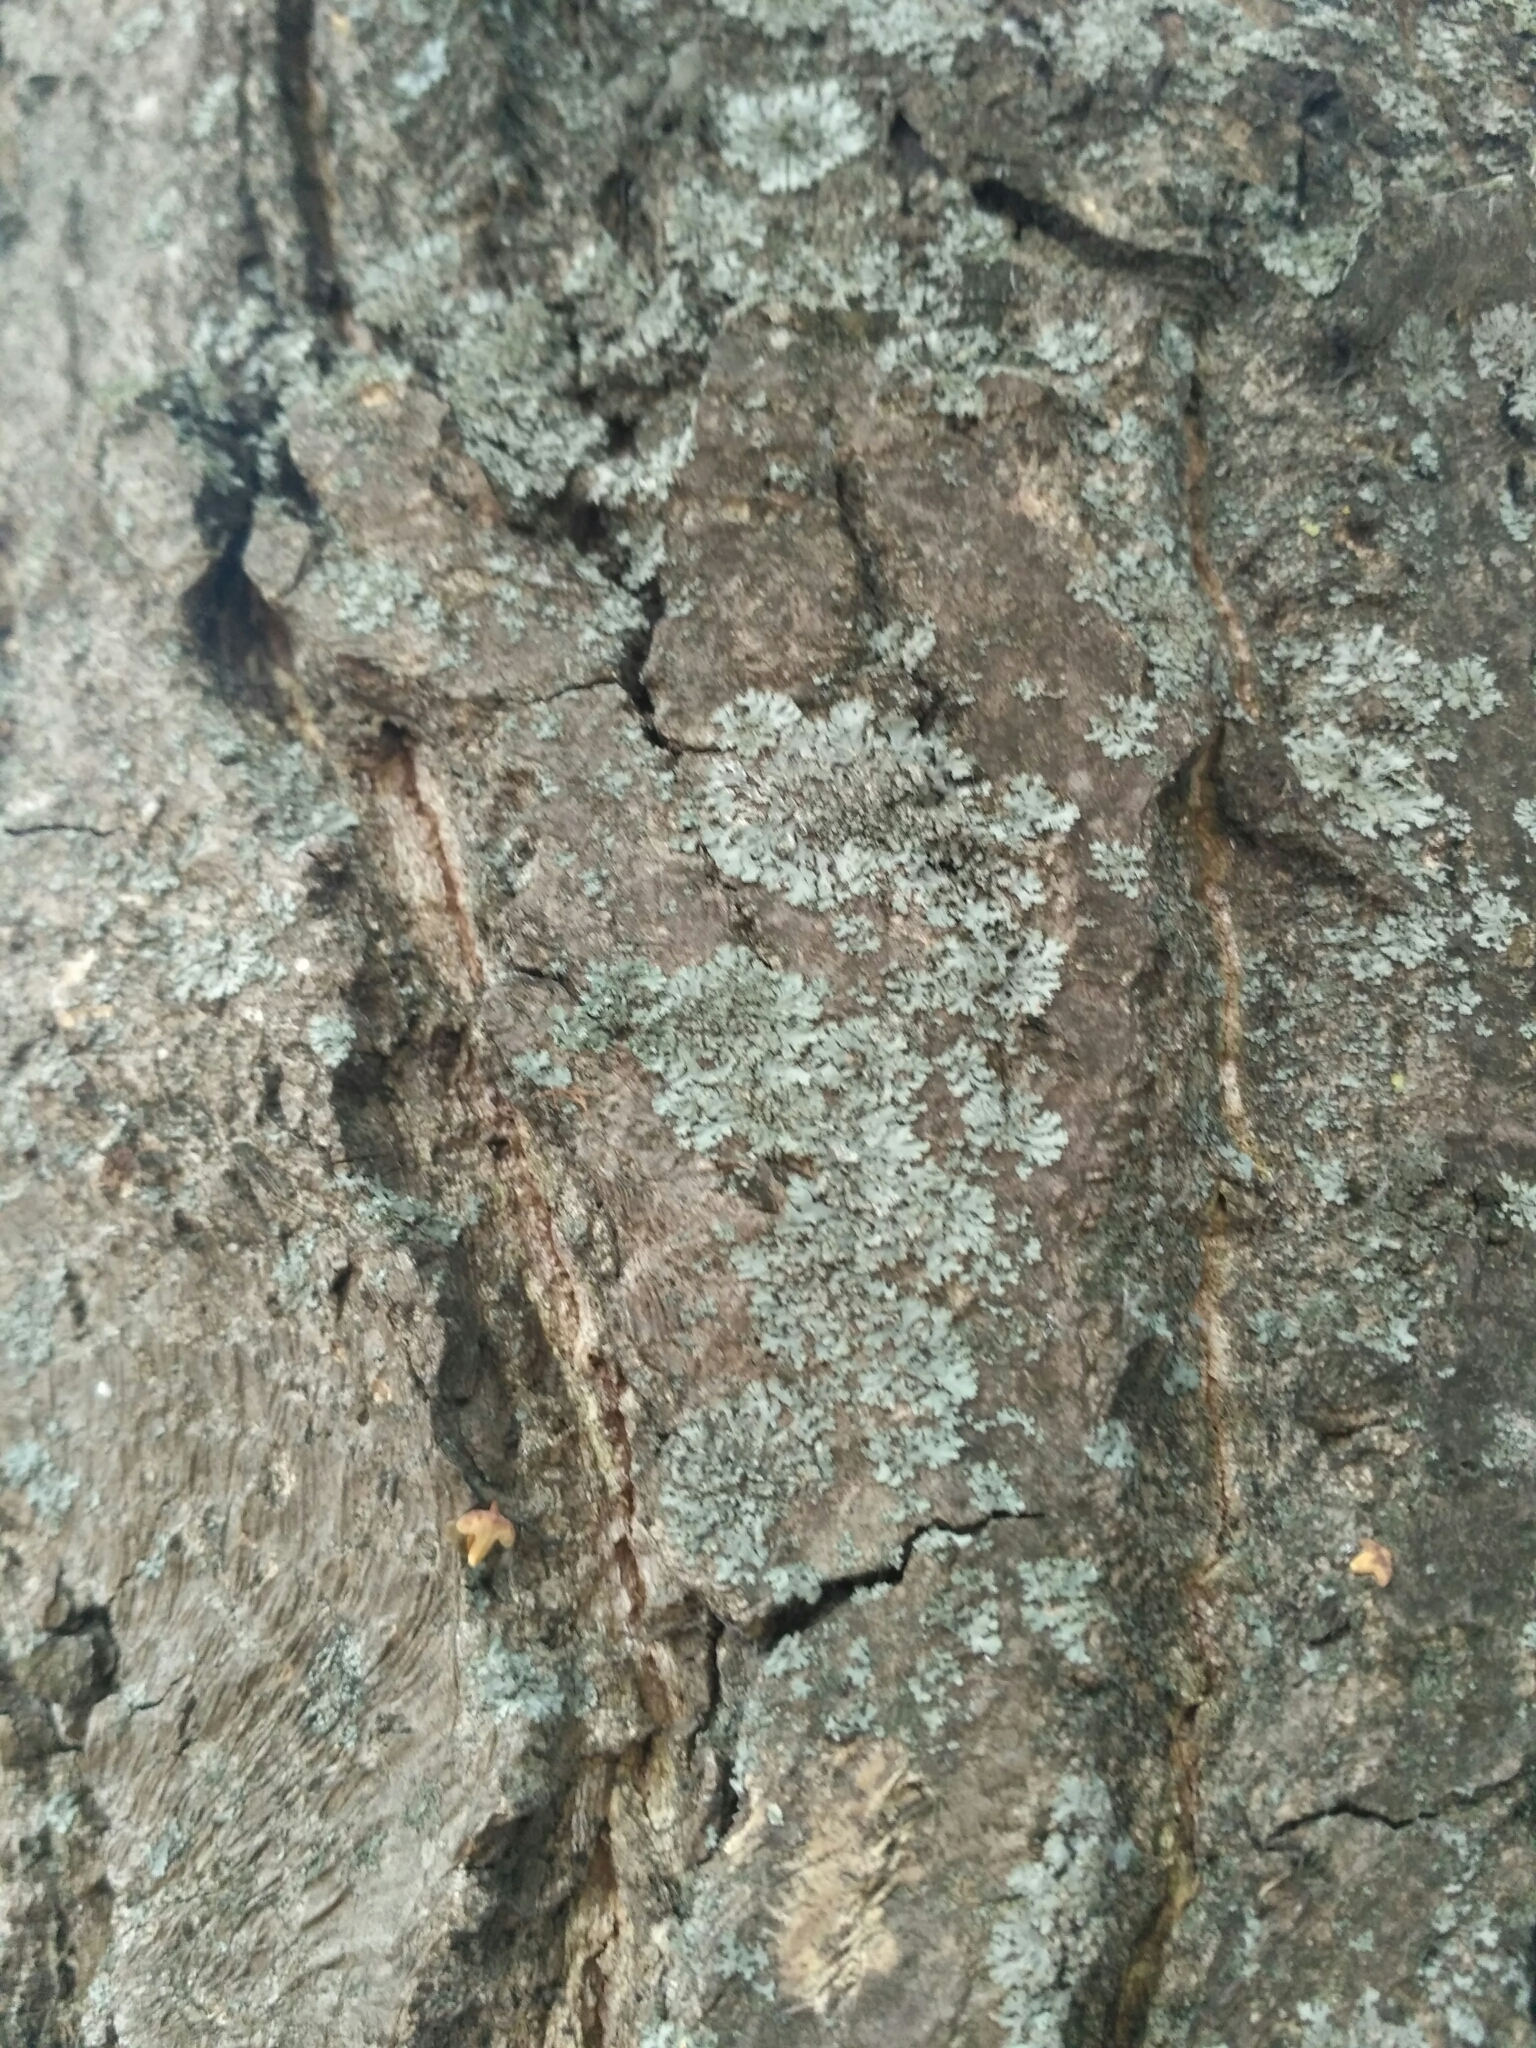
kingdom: Fungi
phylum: Ascomycota
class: Lecanoromycetes
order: Caliciales
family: Physciaceae
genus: Phaeophyscia
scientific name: Phaeophyscia orbicularis
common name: Mealy shadow lichen
